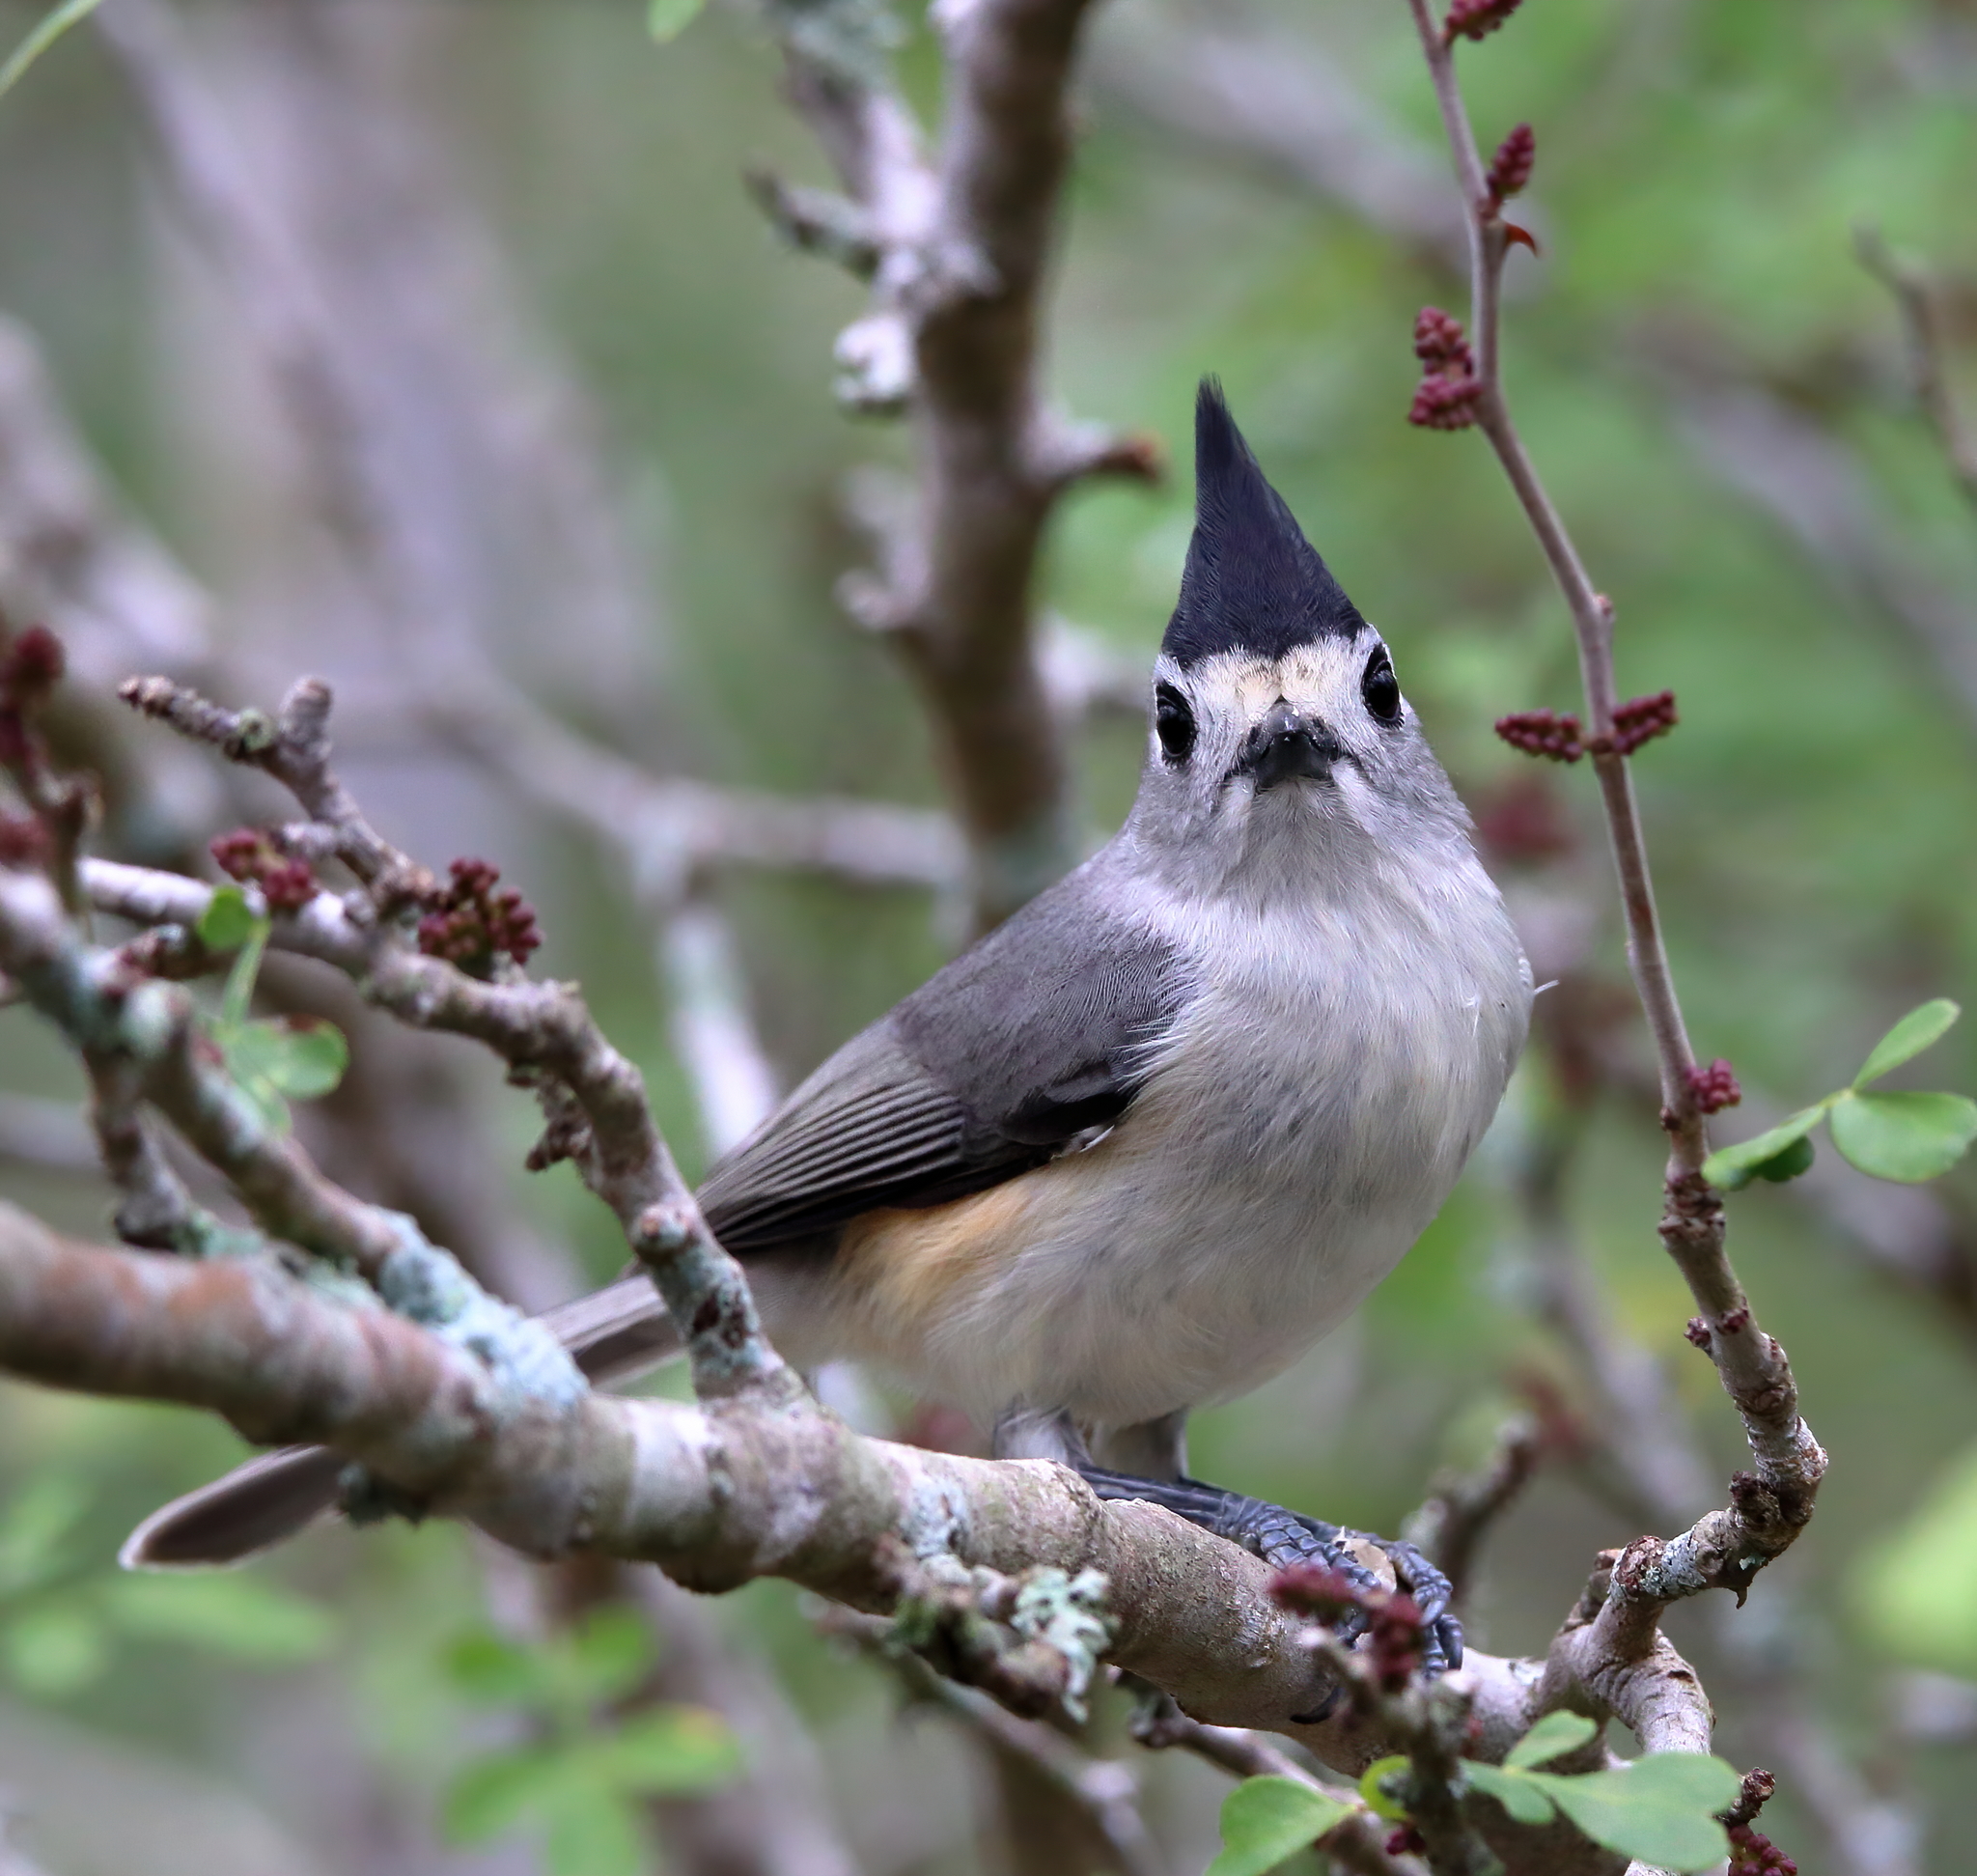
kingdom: Animalia
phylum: Chordata
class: Aves
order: Passeriformes
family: Paridae
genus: Baeolophus
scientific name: Baeolophus atricristatus
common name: Black-crested titmouse
